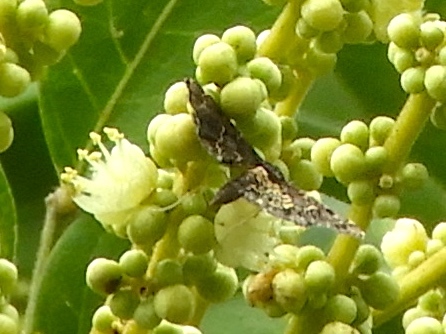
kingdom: Animalia
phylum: Arthropoda
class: Insecta
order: Lepidoptera
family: Crambidae
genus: Eurrhyparodes
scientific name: Eurrhyparodes
